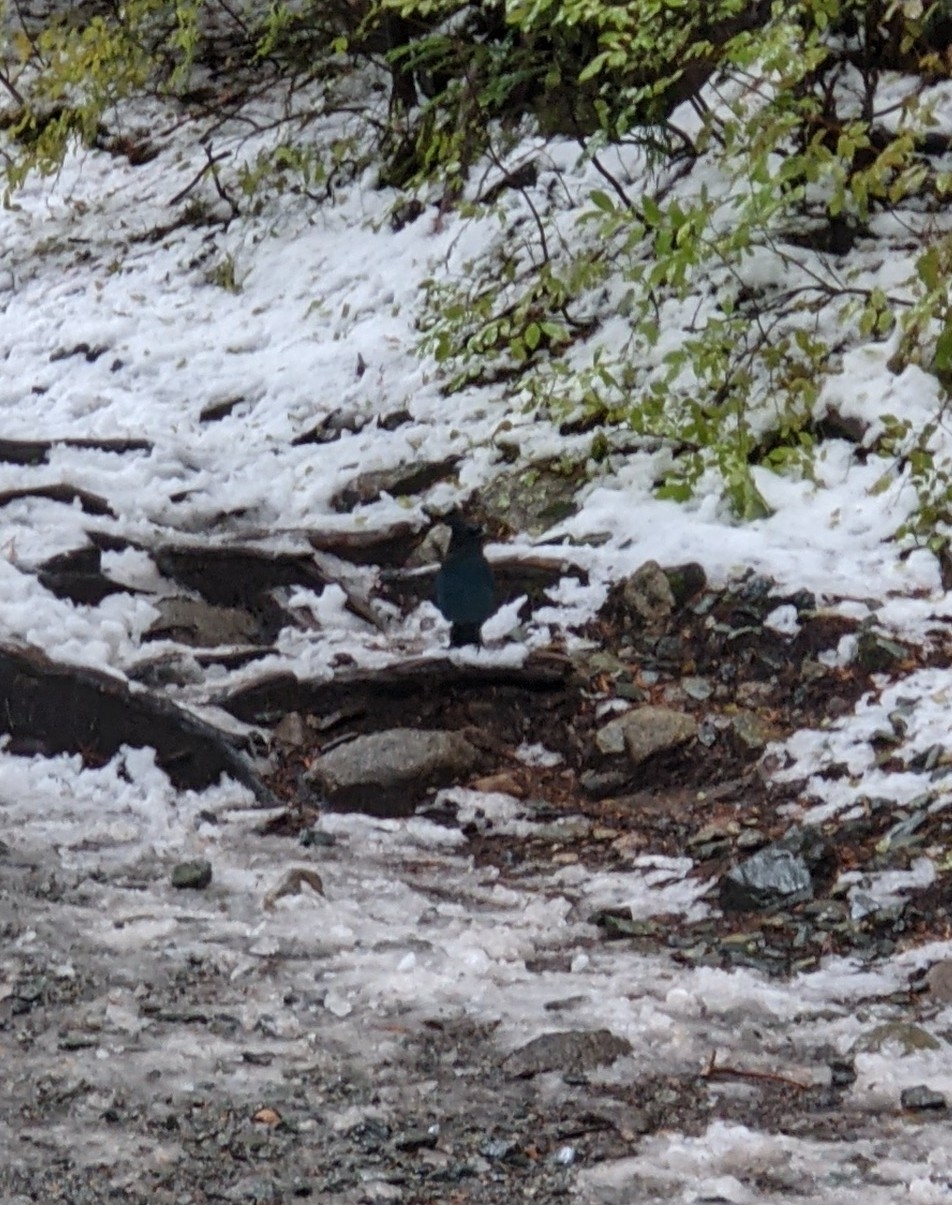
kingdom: Animalia
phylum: Chordata
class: Aves
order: Passeriformes
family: Corvidae
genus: Cyanocitta
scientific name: Cyanocitta stelleri
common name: Steller's jay
